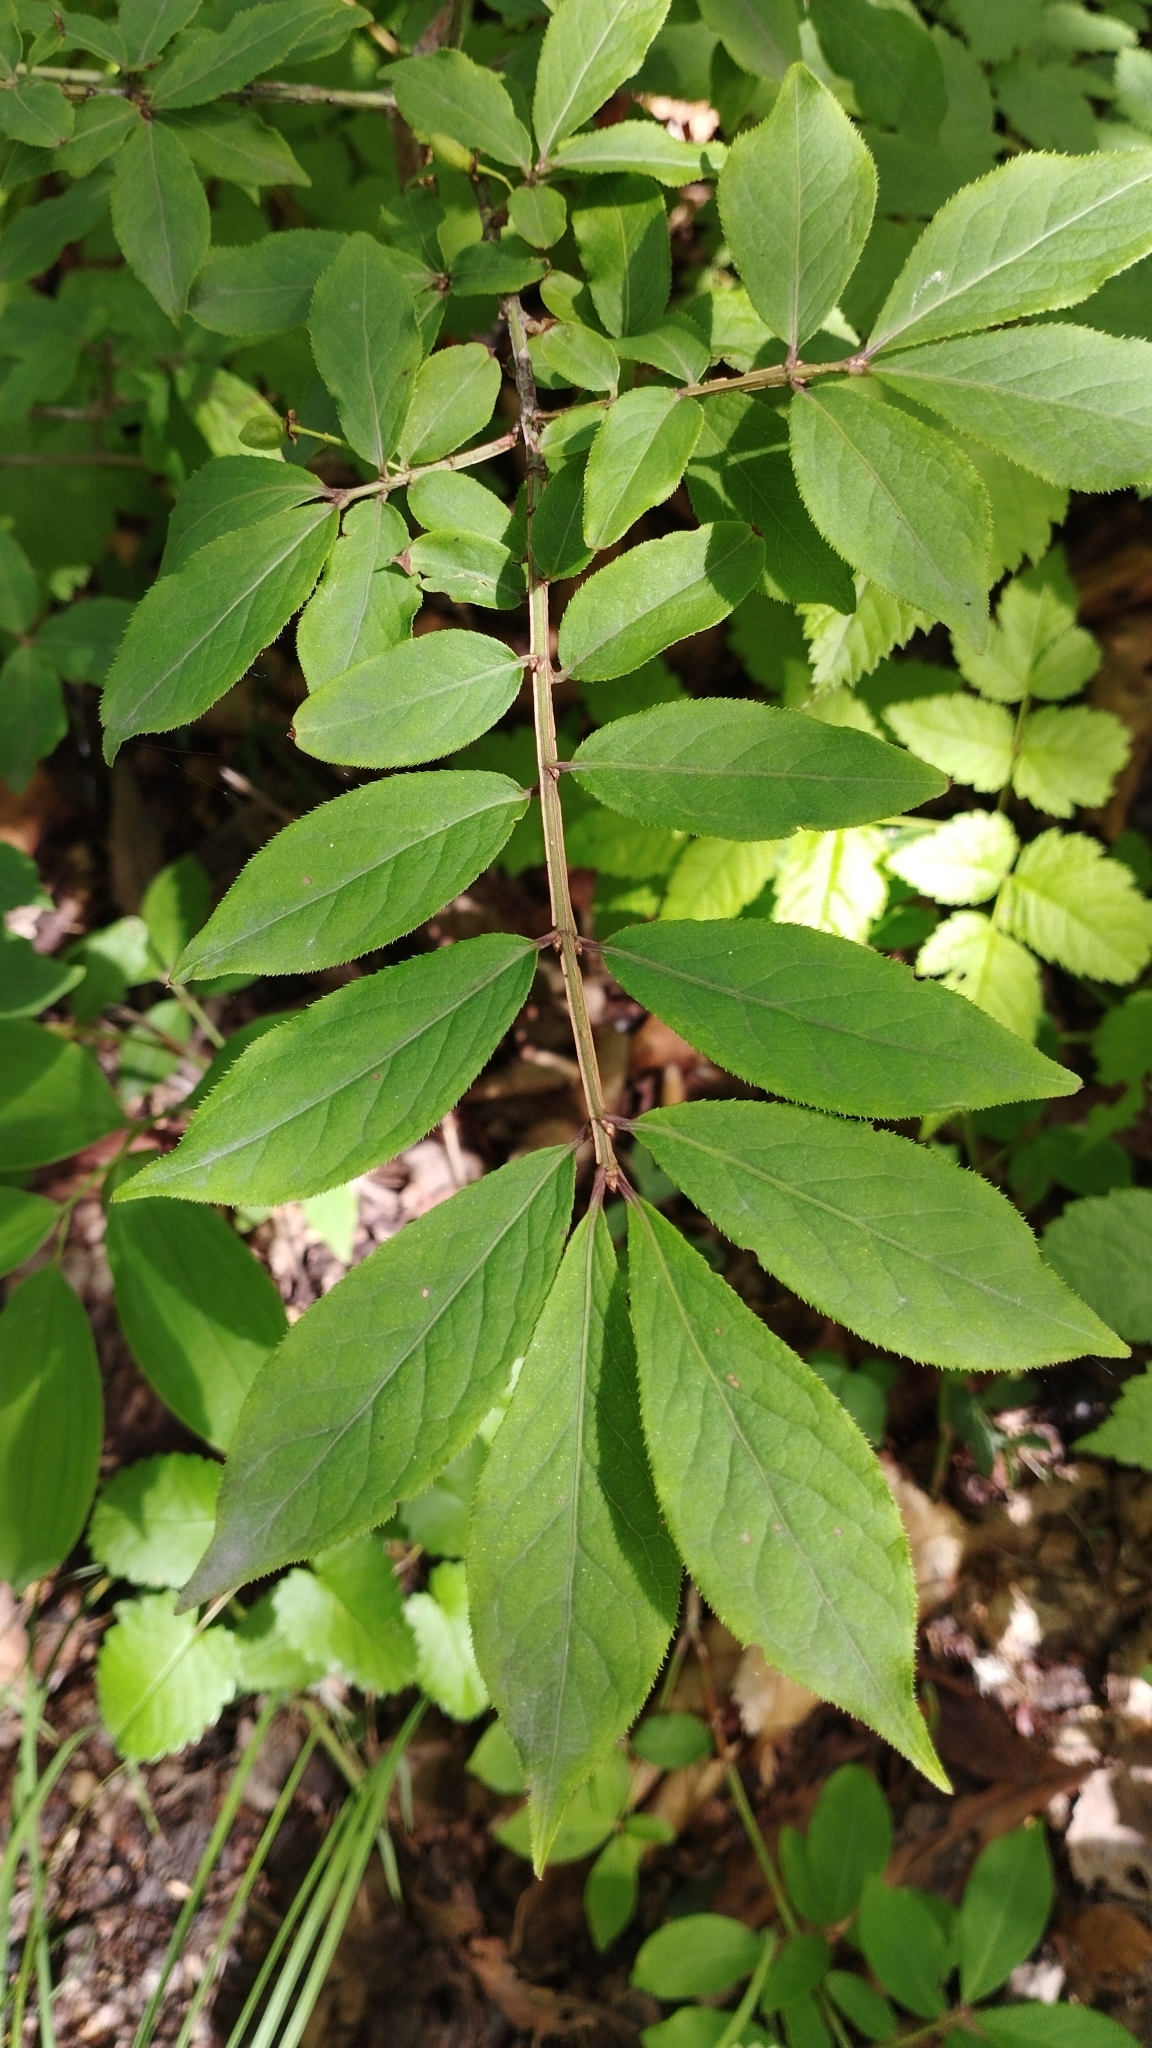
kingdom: Plantae
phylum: Tracheophyta
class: Magnoliopsida
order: Celastrales
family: Celastraceae
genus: Euonymus
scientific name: Euonymus alatus
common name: Winged euonymus
